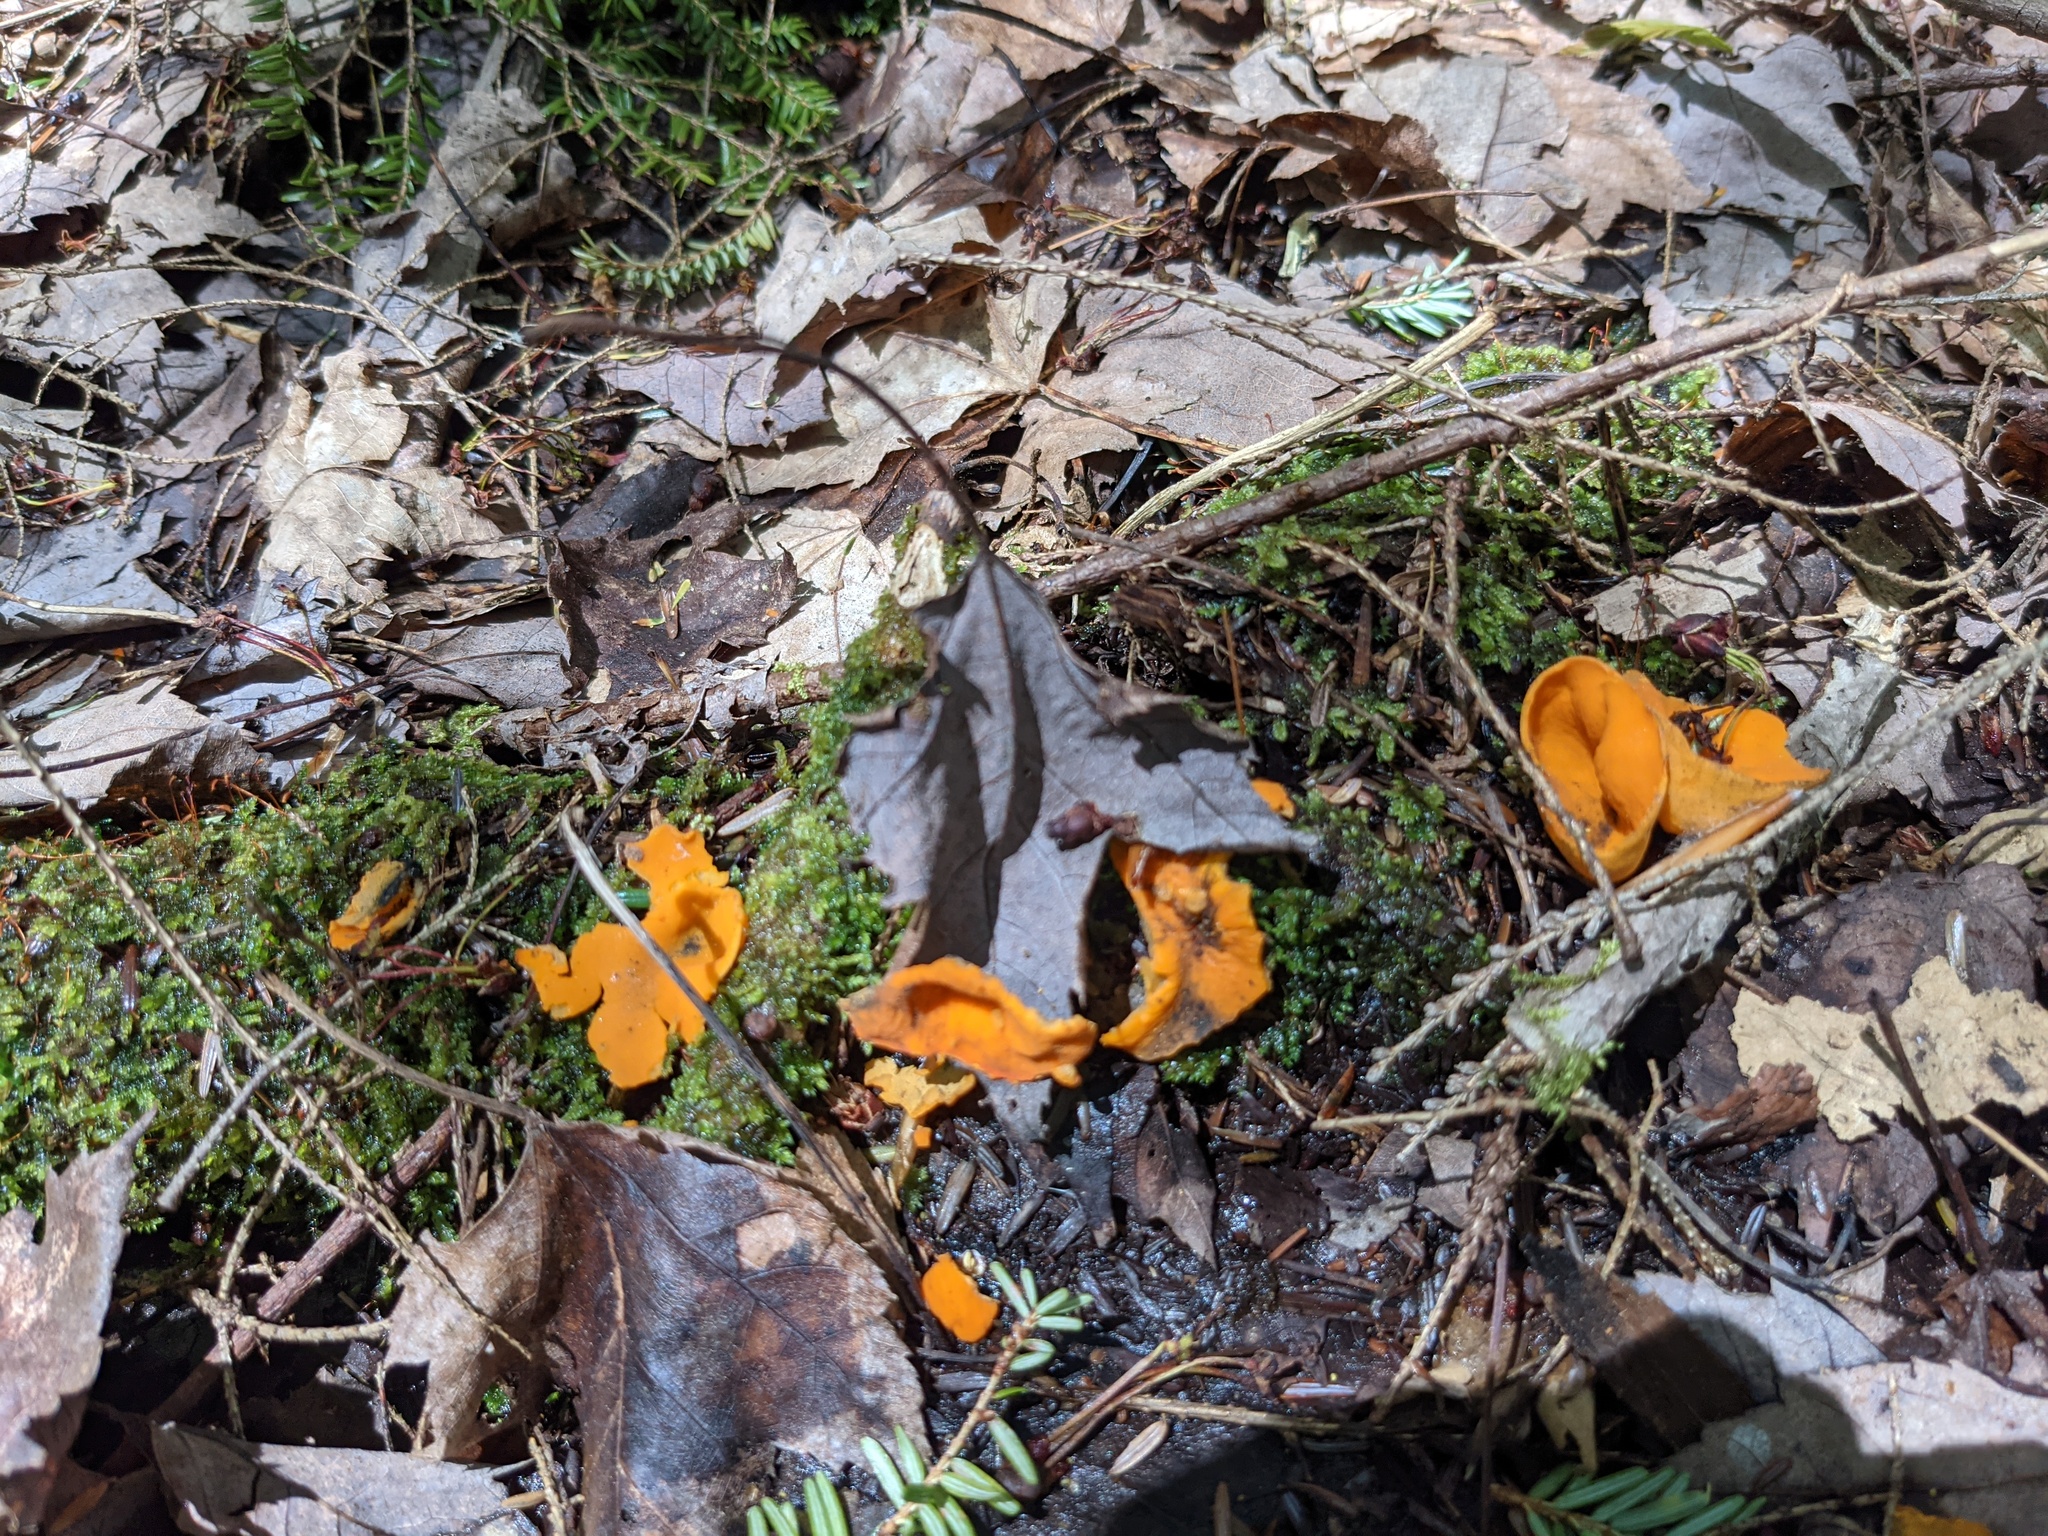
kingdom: Fungi
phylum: Ascomycota
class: Pezizomycetes
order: Pezizales
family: Caloscyphaceae
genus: Caloscypha
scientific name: Caloscypha fulgens
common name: Golden cup
